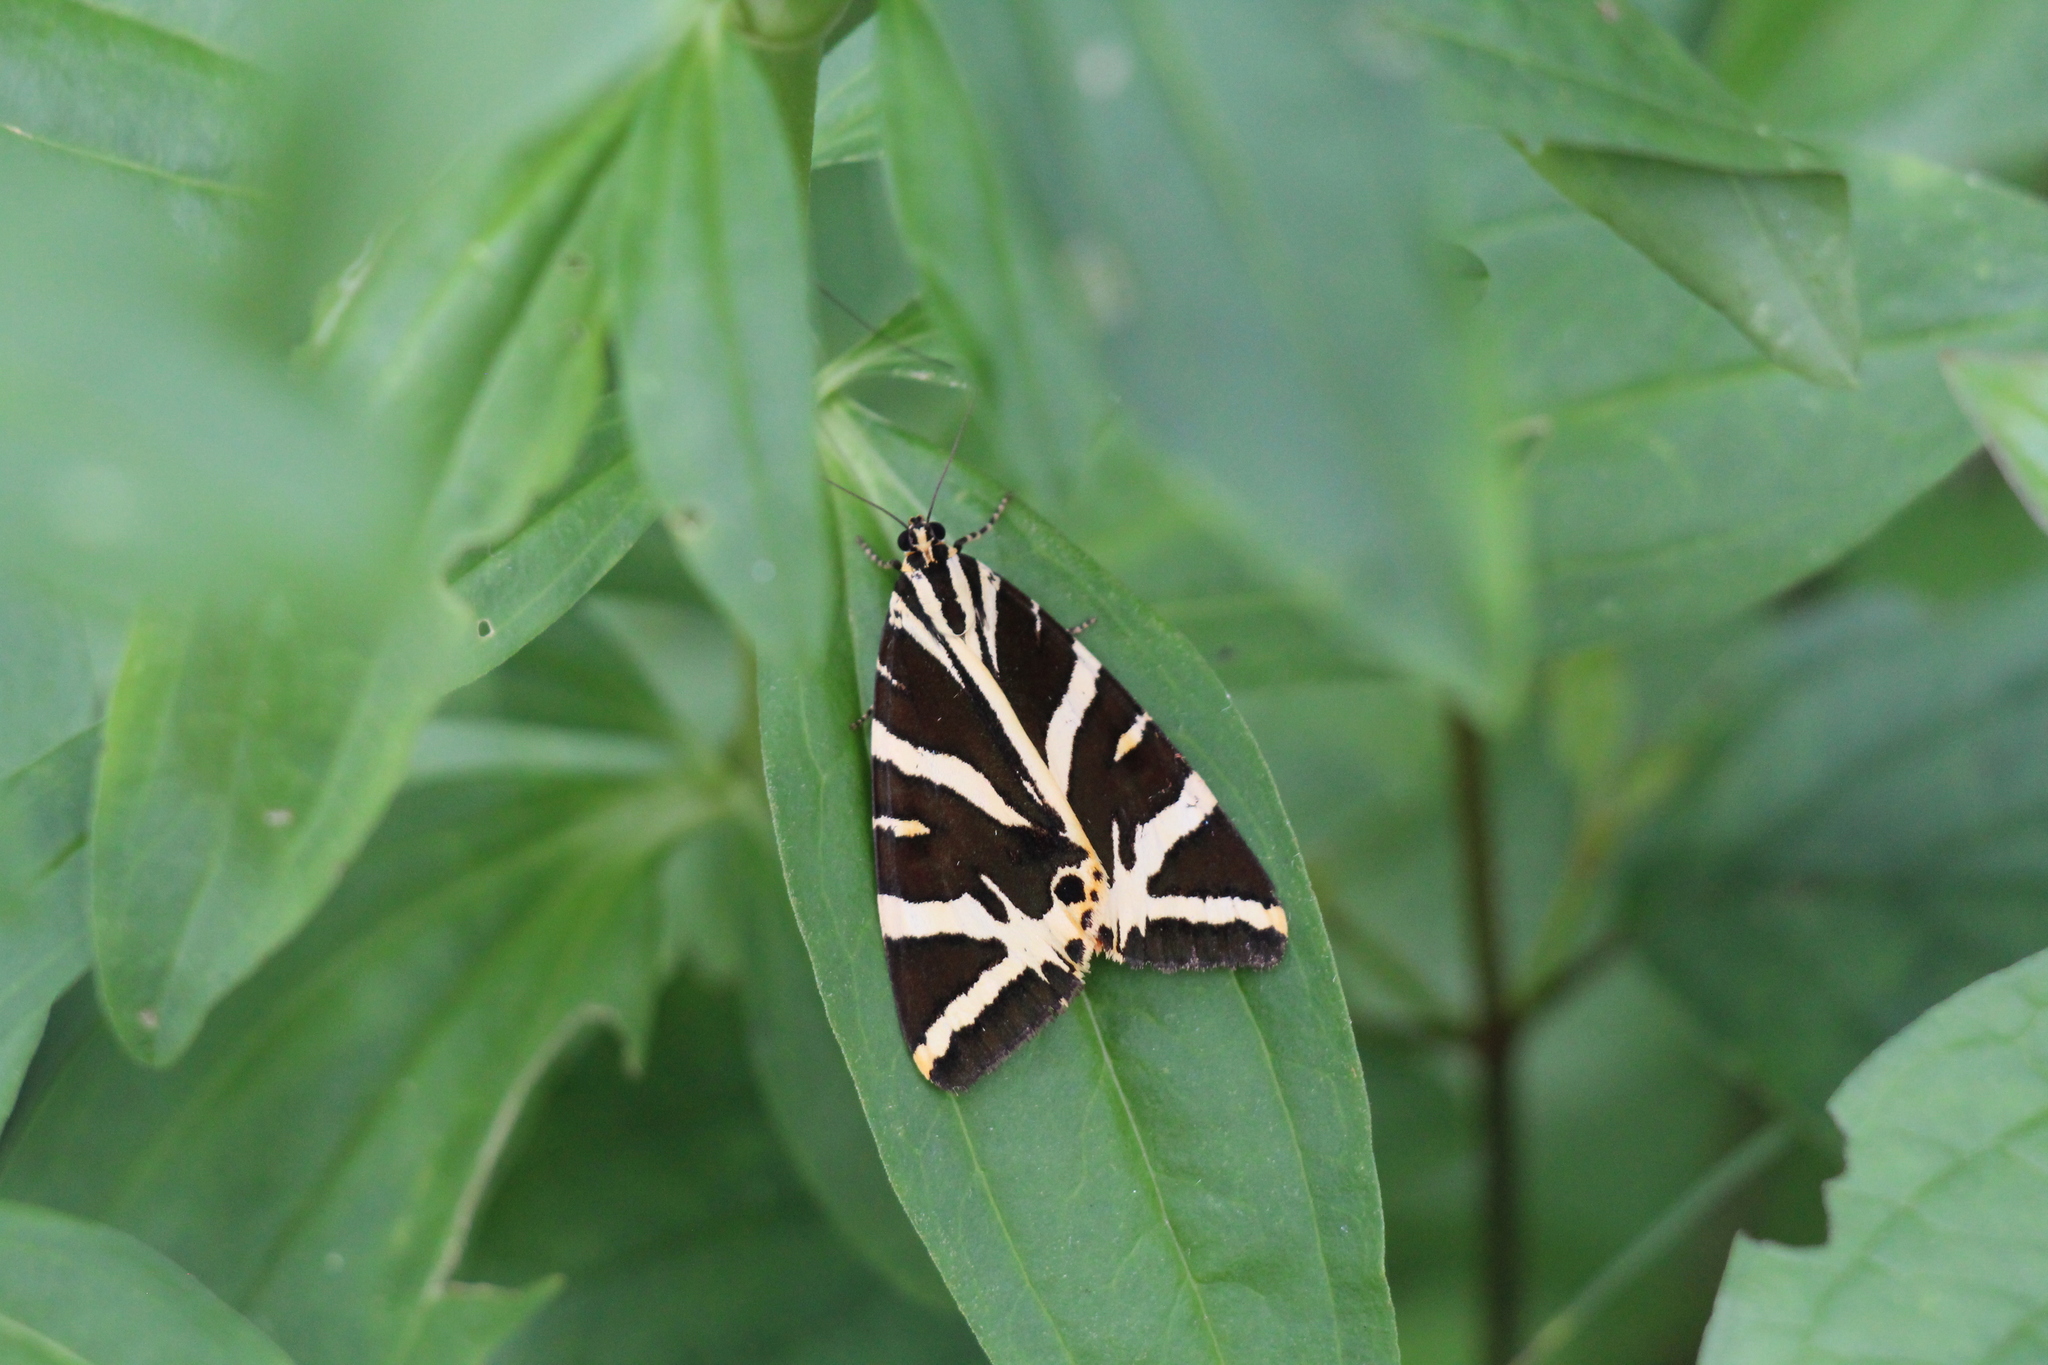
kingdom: Animalia
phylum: Arthropoda
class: Insecta
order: Lepidoptera
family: Erebidae
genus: Euplagia
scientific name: Euplagia quadripunctaria
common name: Jersey tiger
